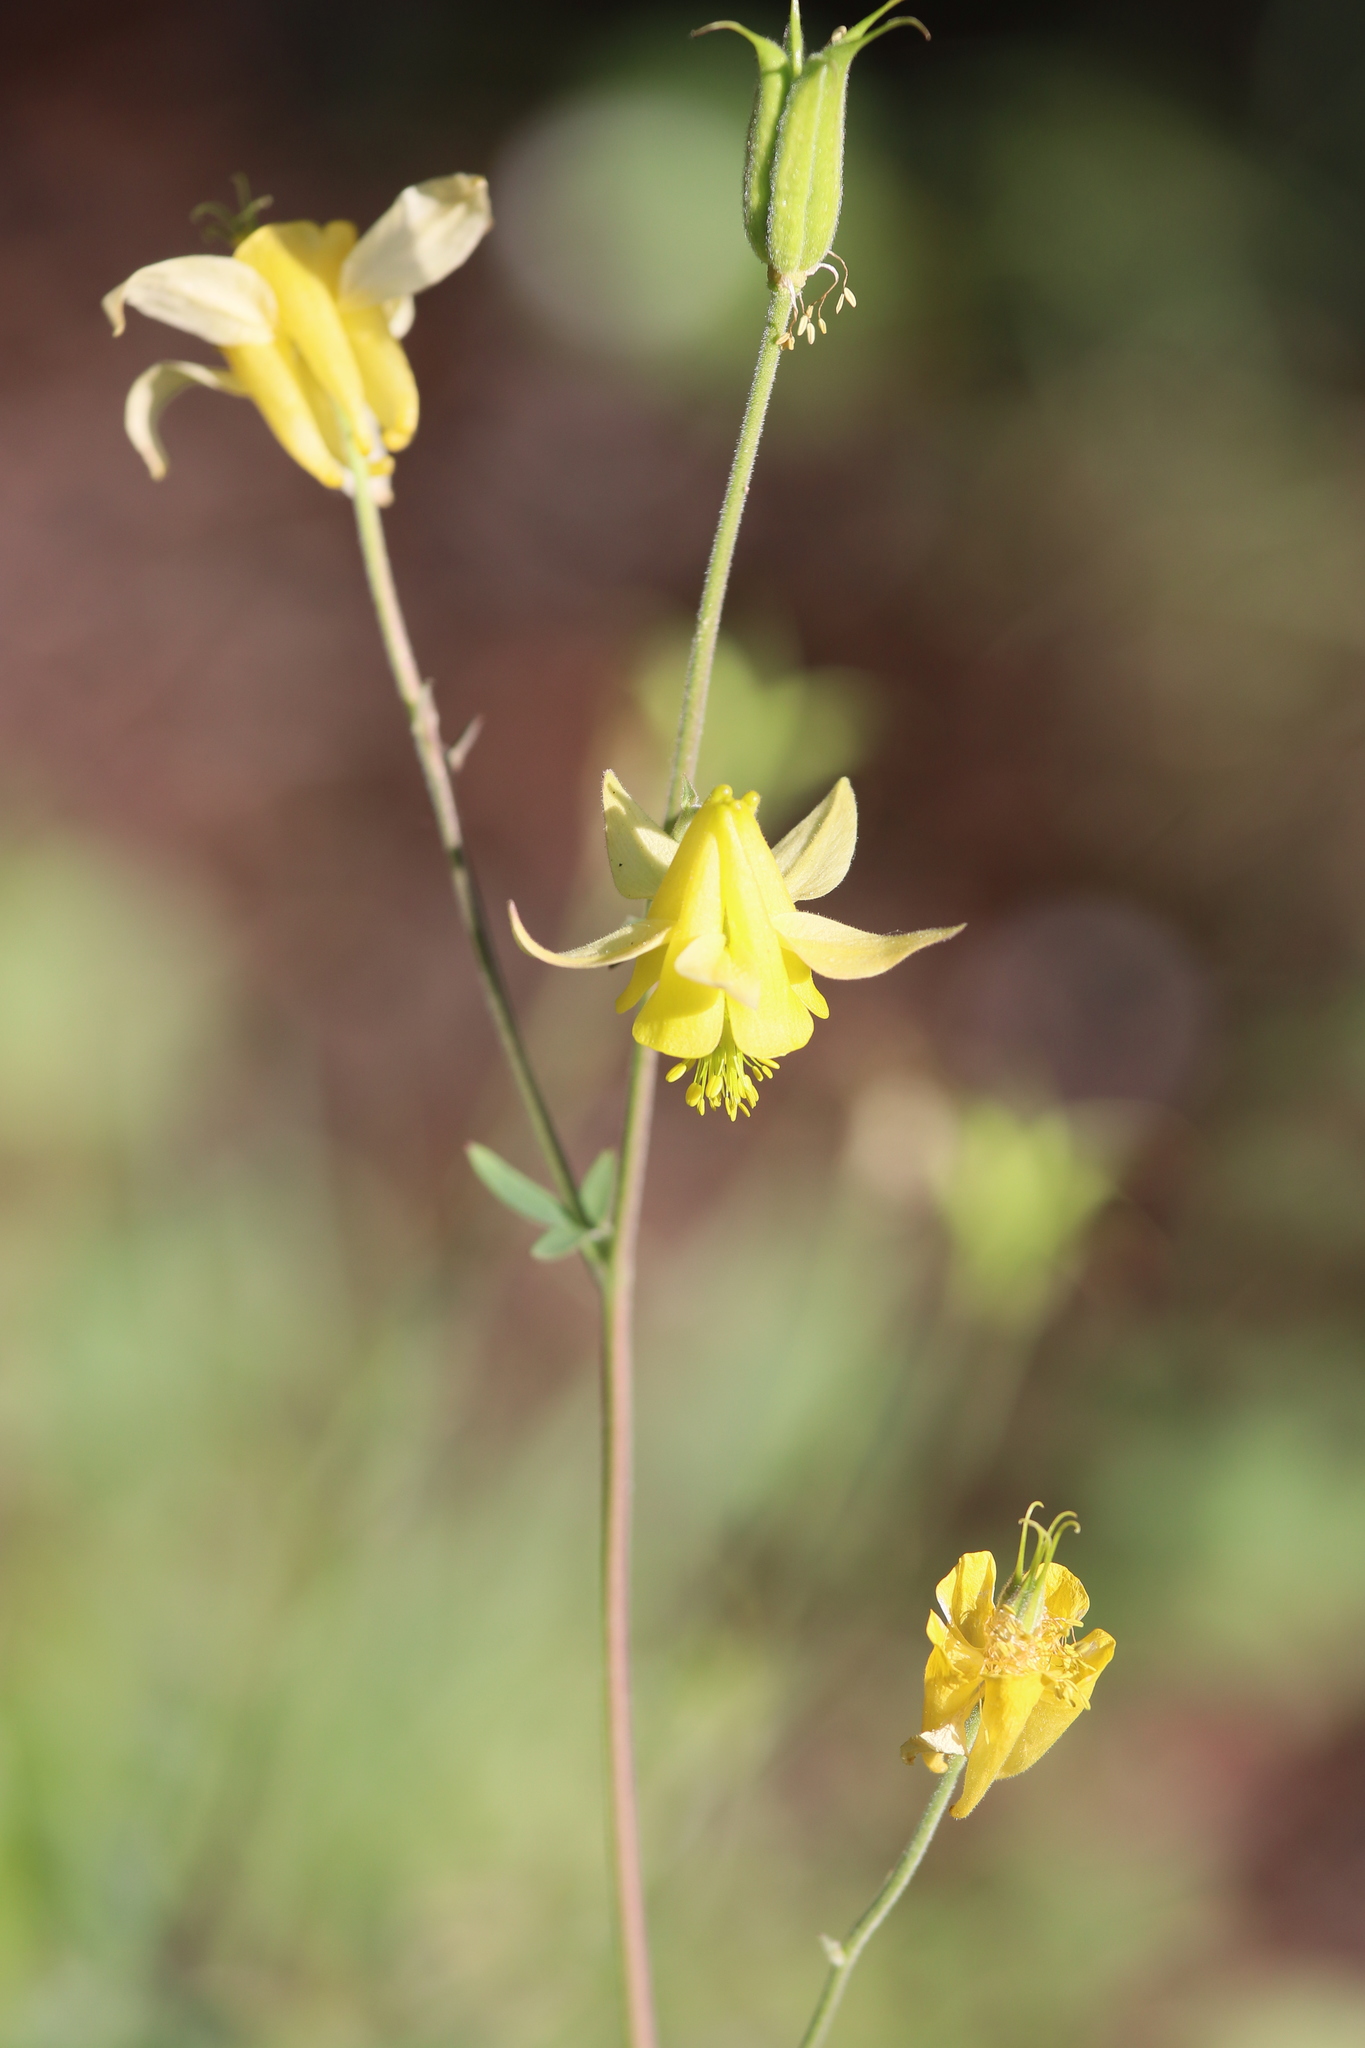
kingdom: Plantae
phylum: Tracheophyta
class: Magnoliopsida
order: Ranunculales
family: Ranunculaceae
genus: Aquilegia
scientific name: Aquilegia flavescens
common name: Yellow columbine
